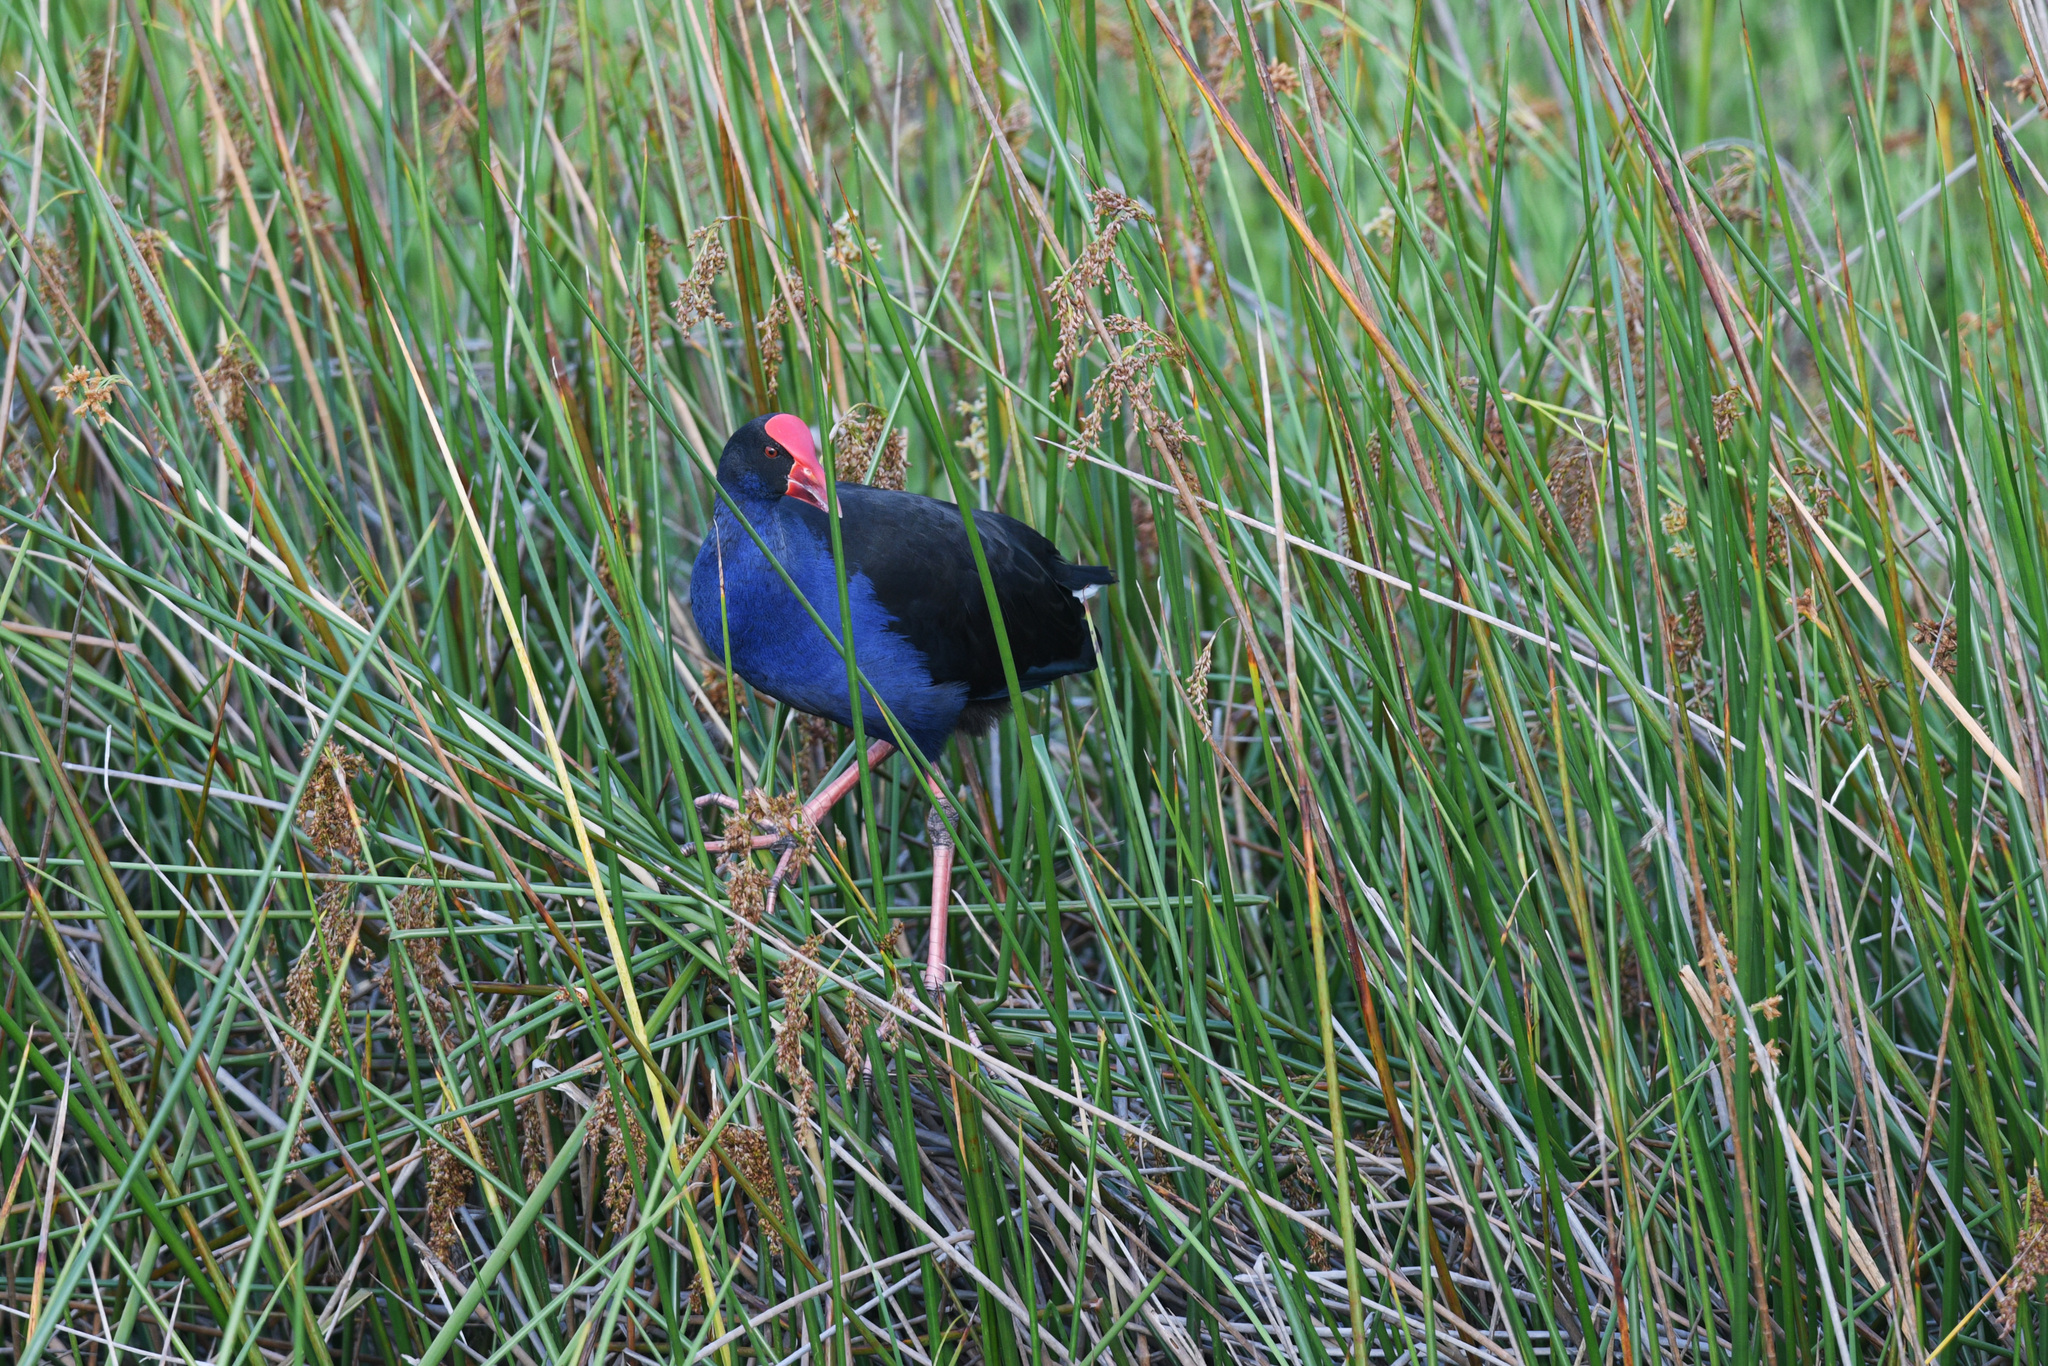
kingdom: Animalia
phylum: Chordata
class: Aves
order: Gruiformes
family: Rallidae
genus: Porphyrio
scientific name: Porphyrio melanotus
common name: Australasian swamphen
